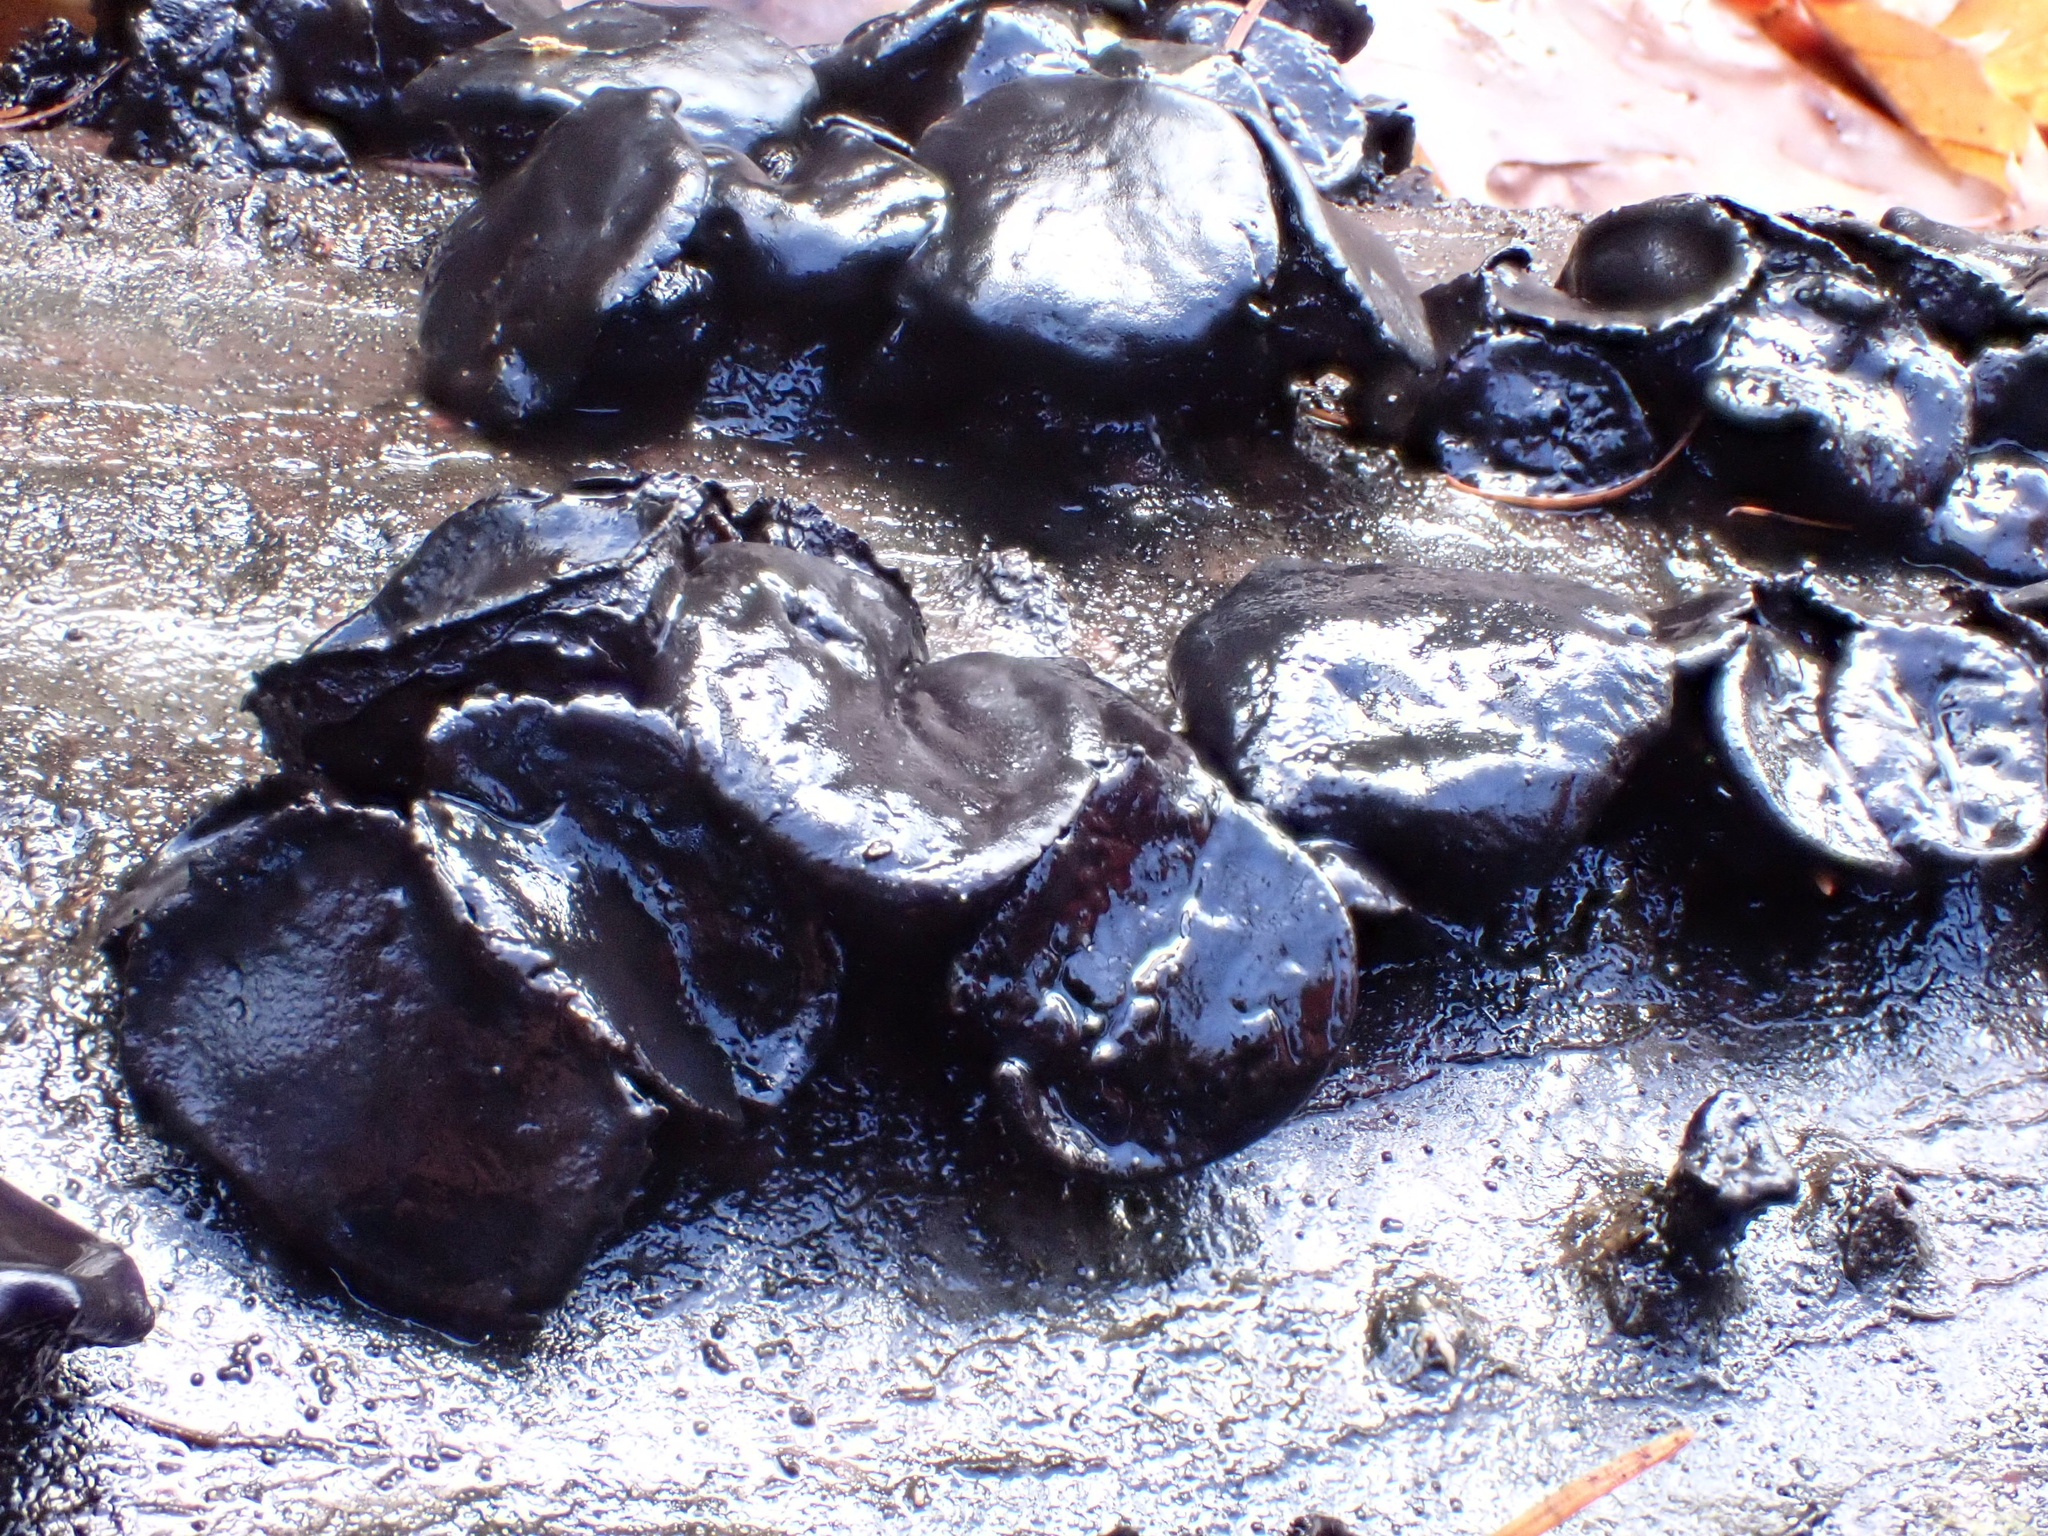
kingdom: Fungi
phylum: Ascomycota
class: Leotiomycetes
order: Phacidiales
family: Phacidiaceae
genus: Bulgaria
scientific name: Bulgaria inquinans
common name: Black bulgar
